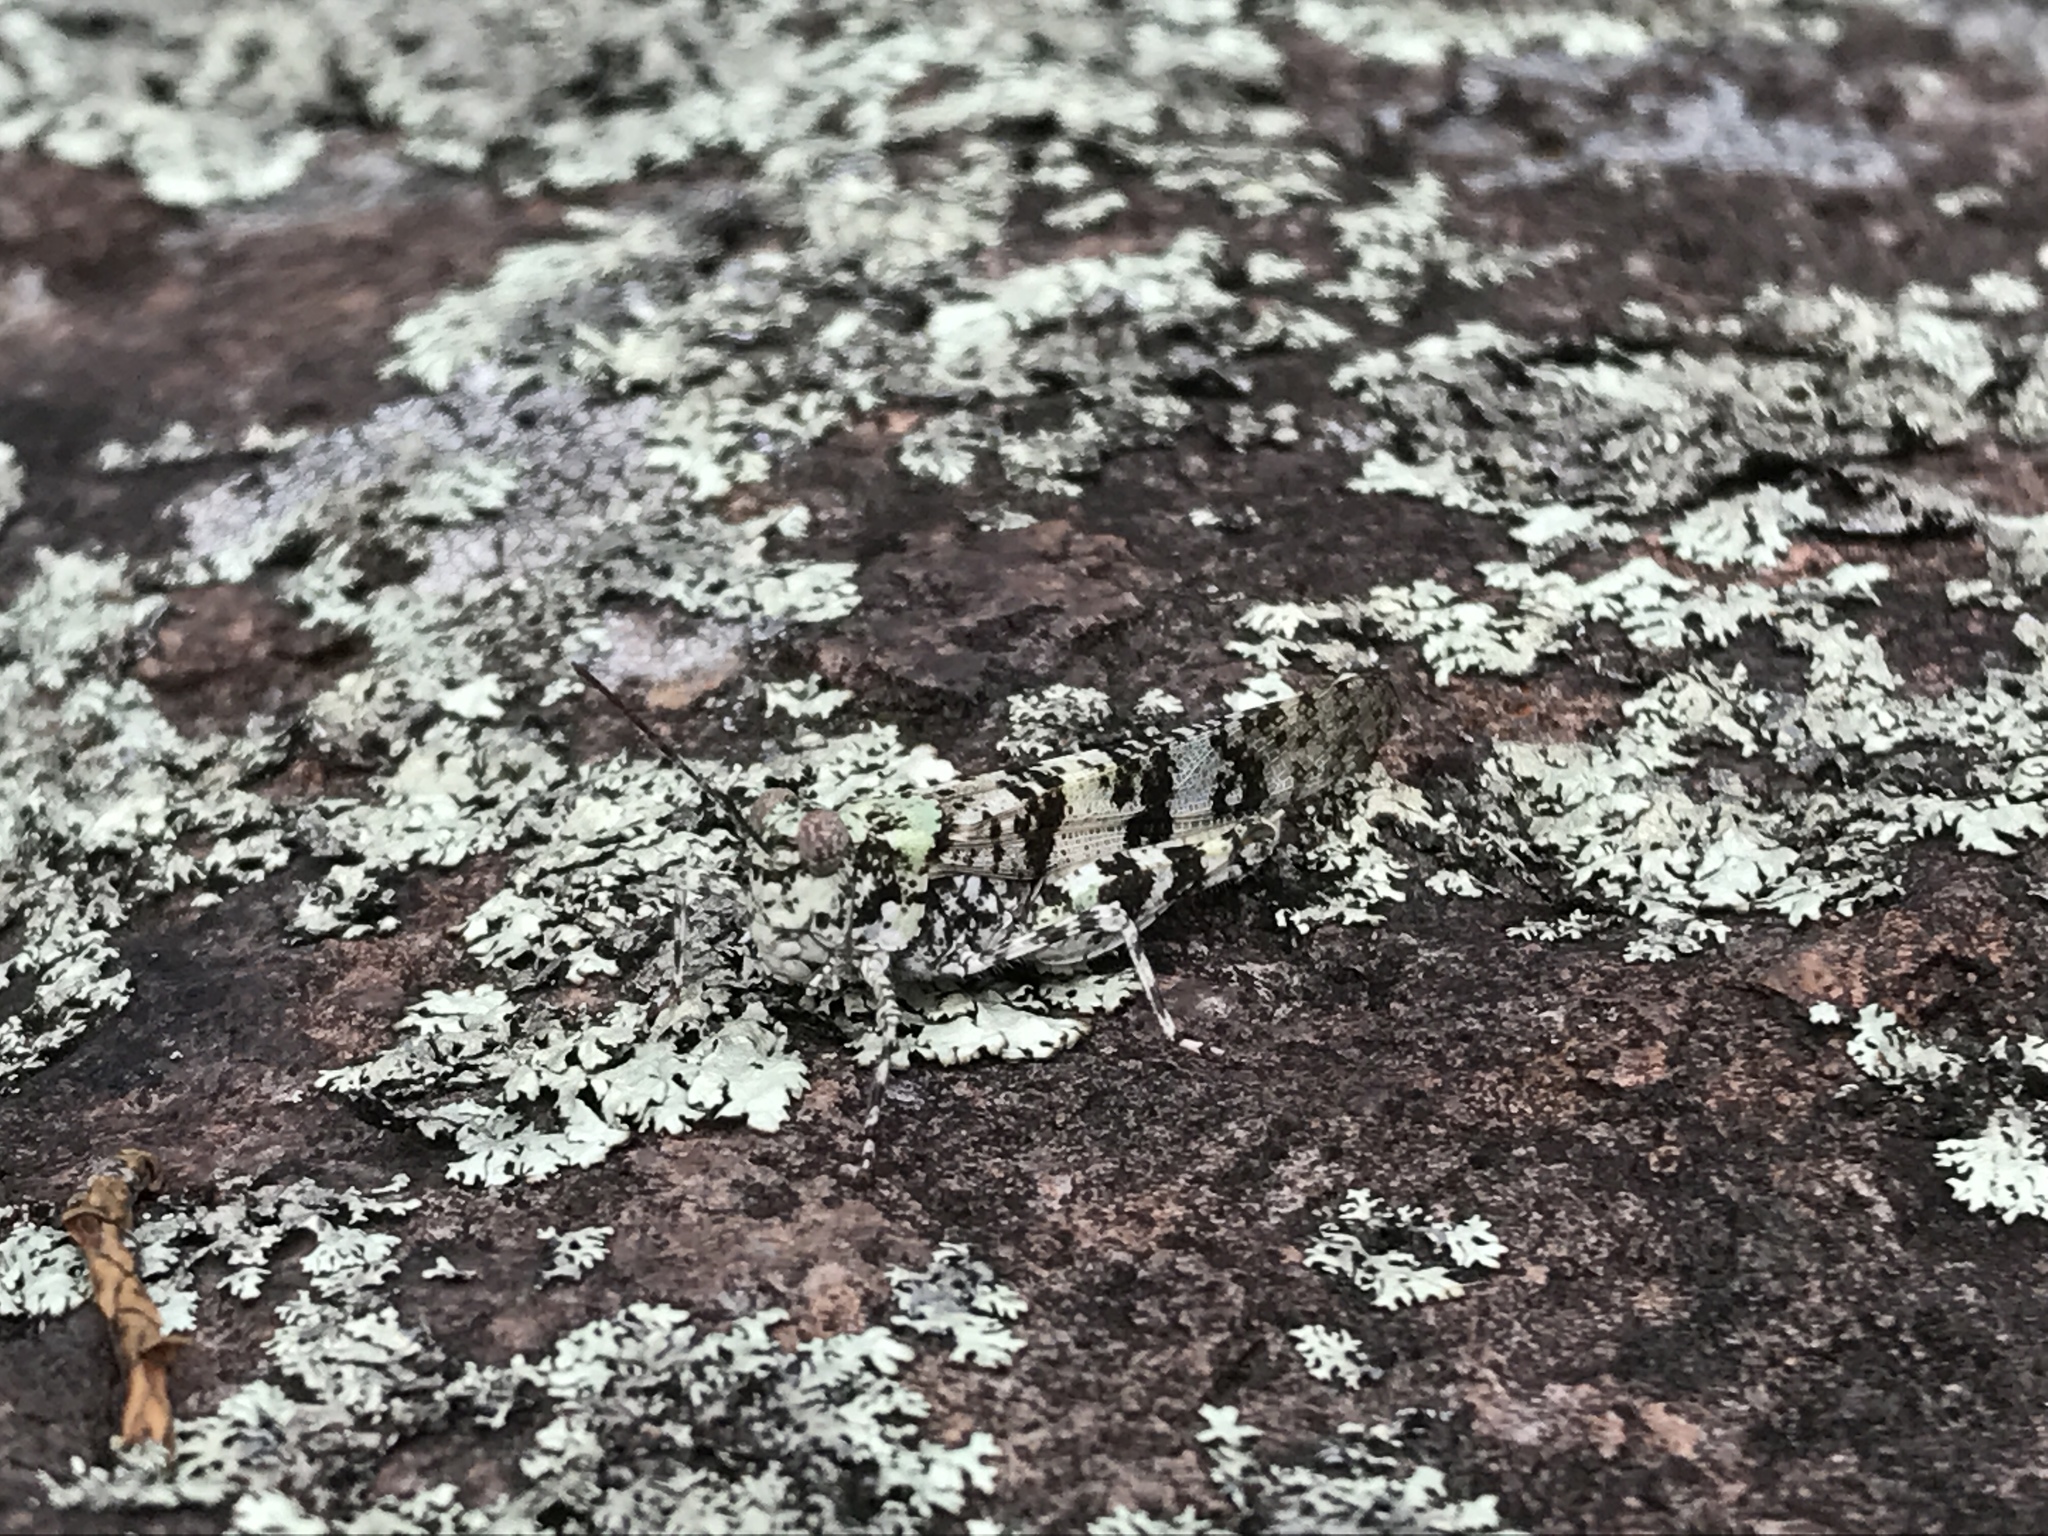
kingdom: Animalia
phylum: Arthropoda
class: Insecta
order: Orthoptera
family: Acrididae
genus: Trimerotropis
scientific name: Trimerotropis saxatilis
